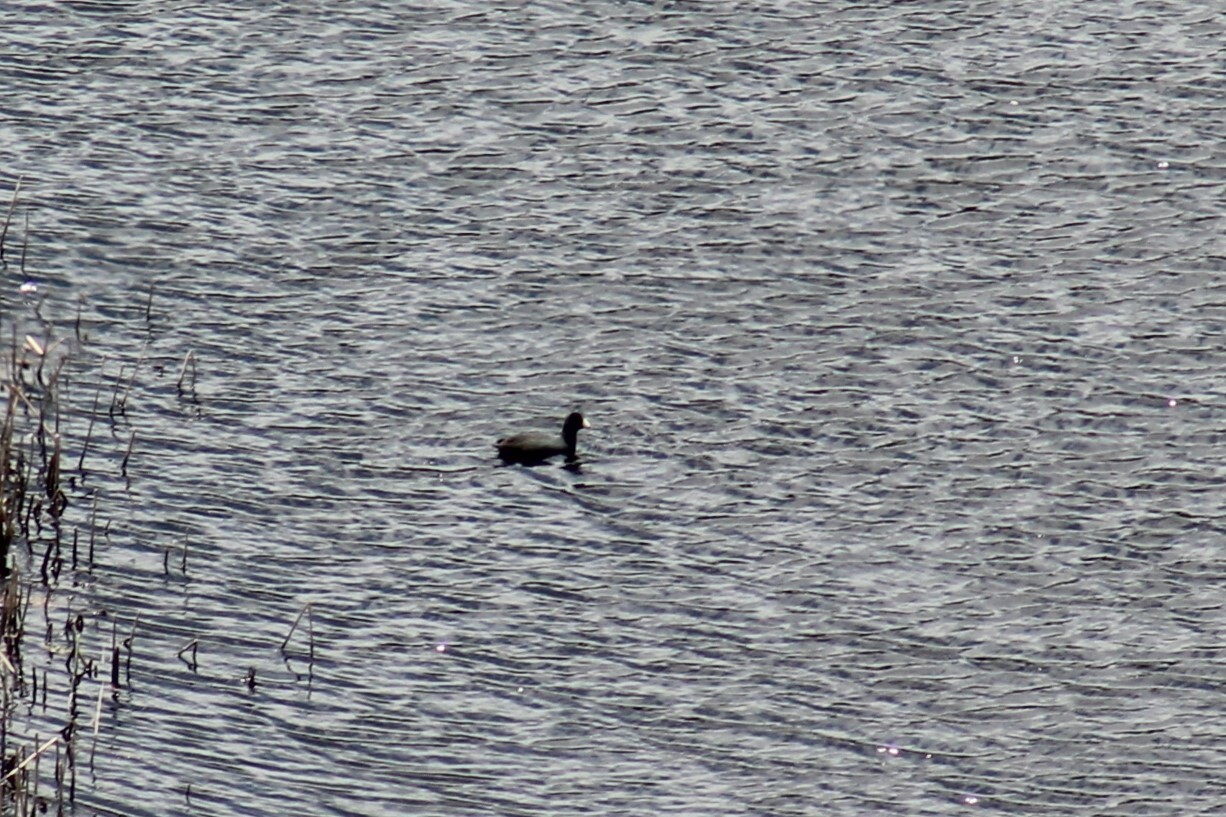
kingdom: Animalia
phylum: Chordata
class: Aves
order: Gruiformes
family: Rallidae
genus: Fulica
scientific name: Fulica americana
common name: American coot
